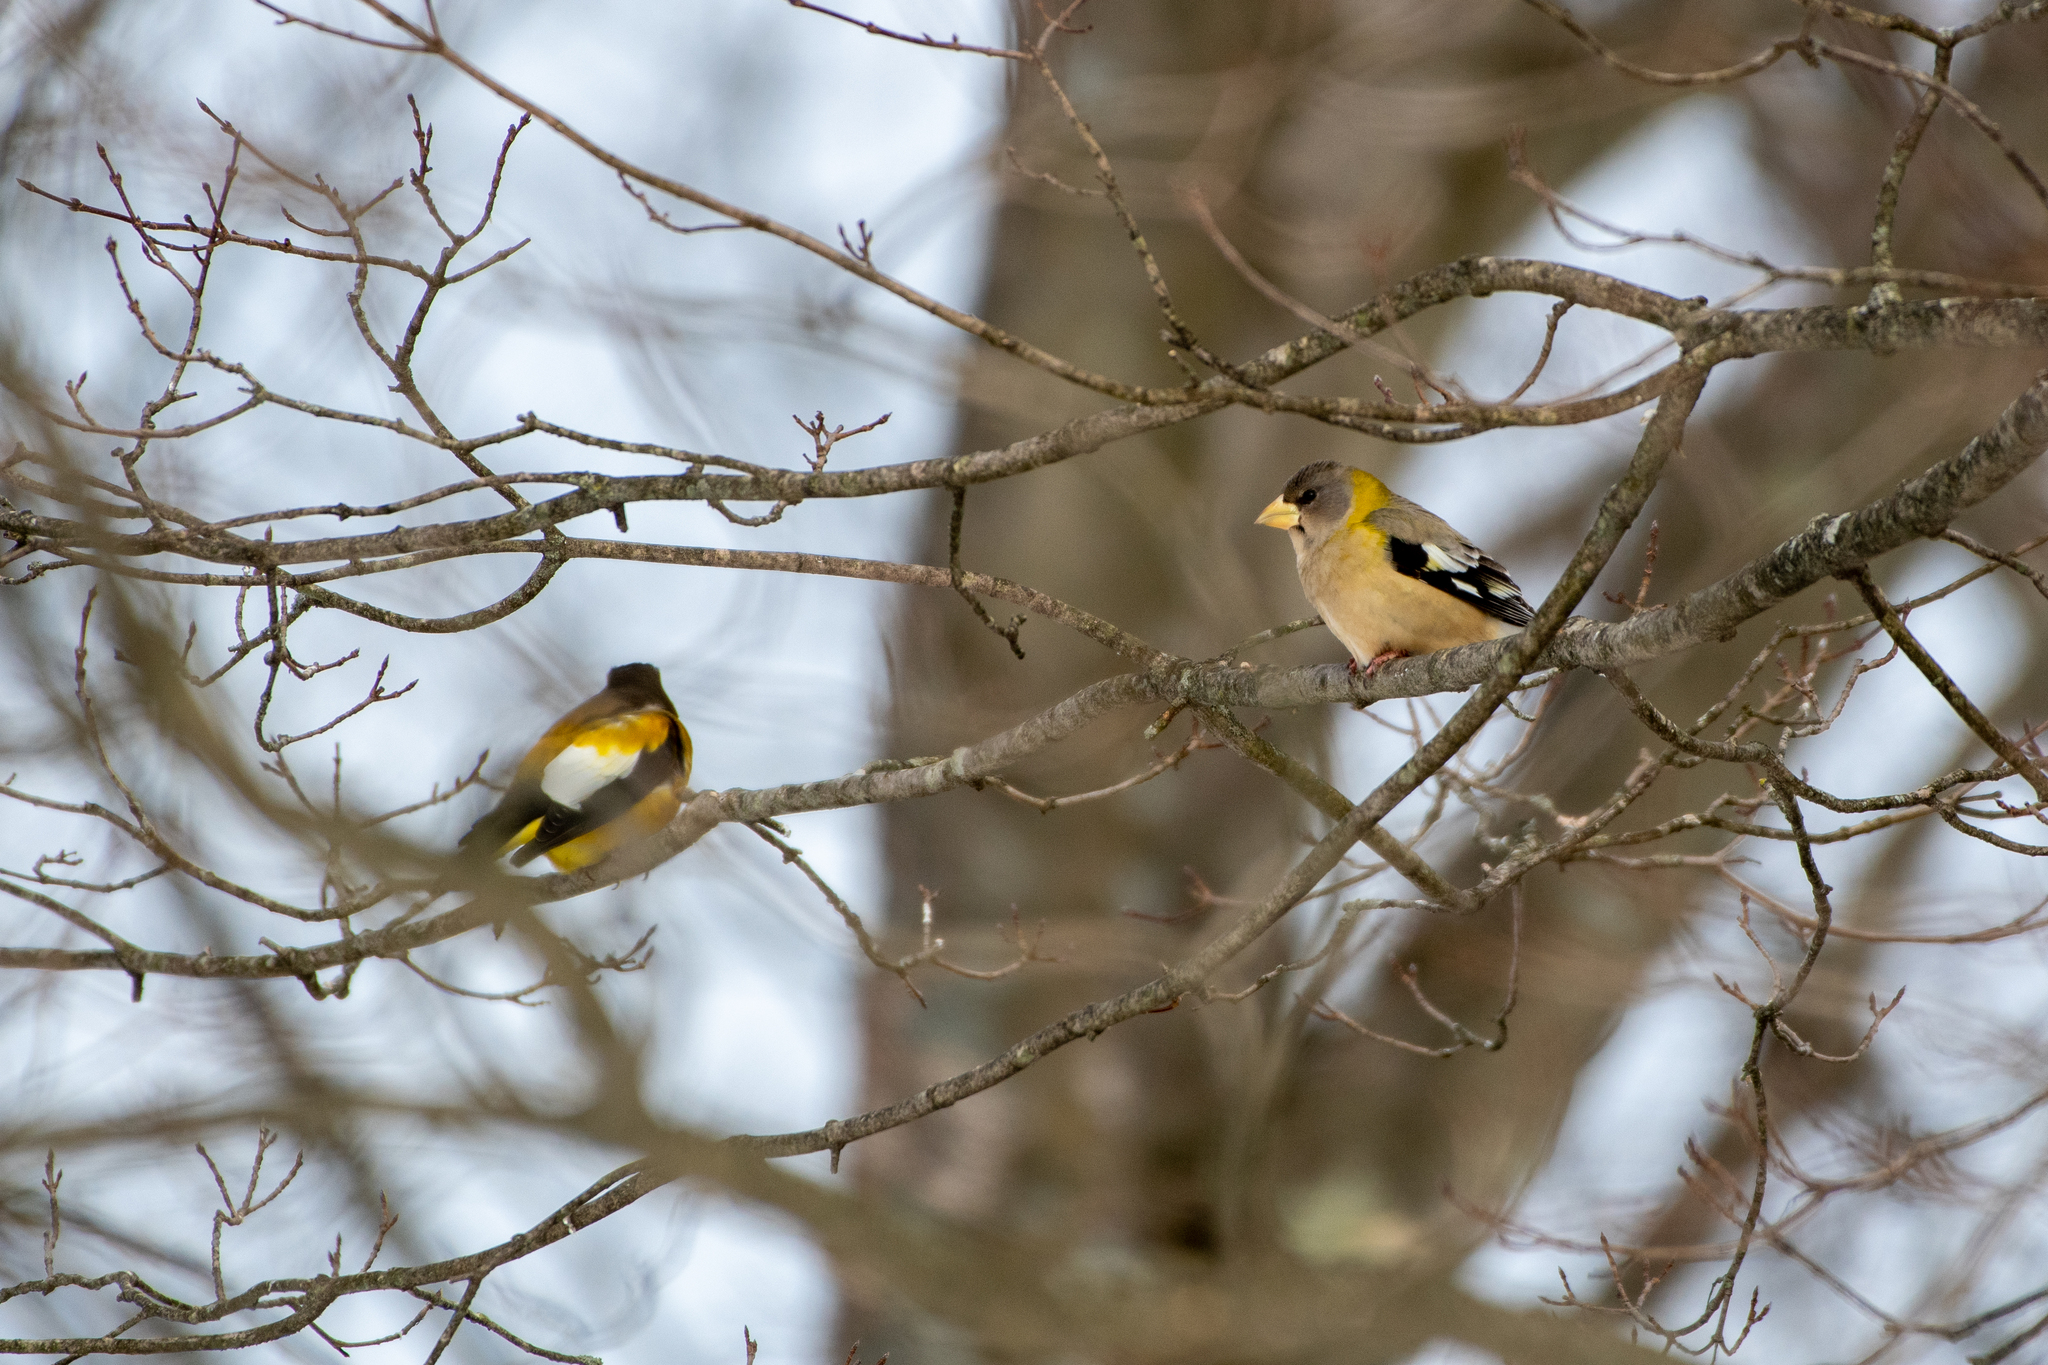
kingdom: Animalia
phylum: Chordata
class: Aves
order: Passeriformes
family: Fringillidae
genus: Hesperiphona
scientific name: Hesperiphona vespertina
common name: Evening grosbeak
